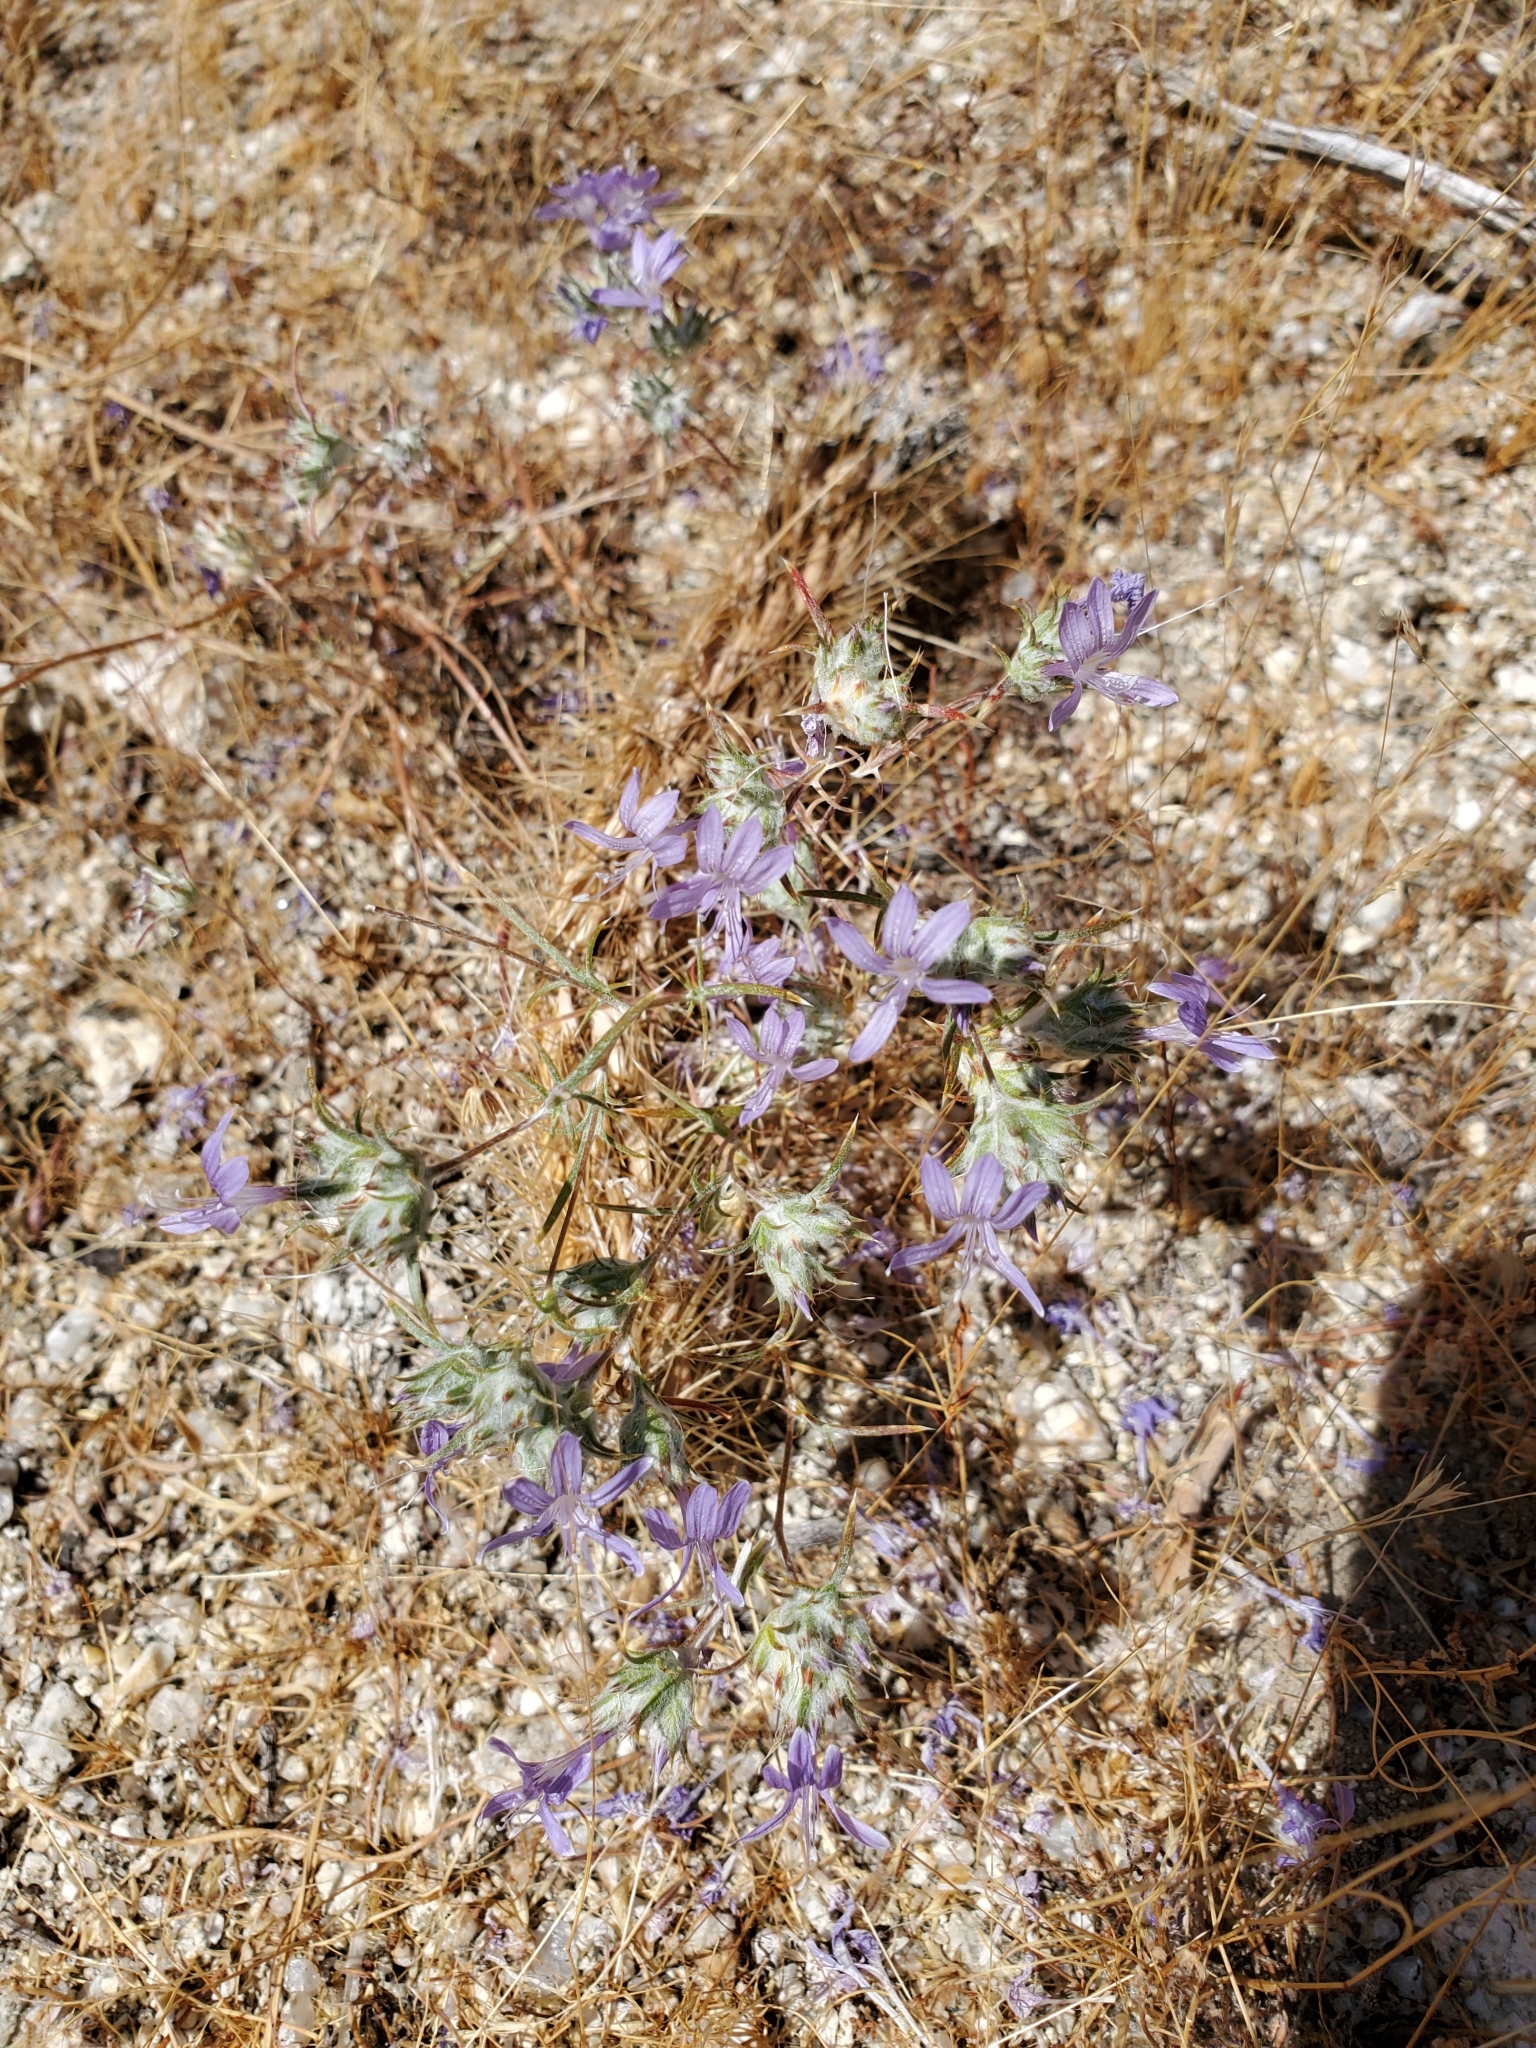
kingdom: Plantae
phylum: Tracheophyta
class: Magnoliopsida
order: Ericales
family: Polemoniaceae
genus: Eriastrum
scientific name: Eriastrum eremicum
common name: Desert eriastrum
